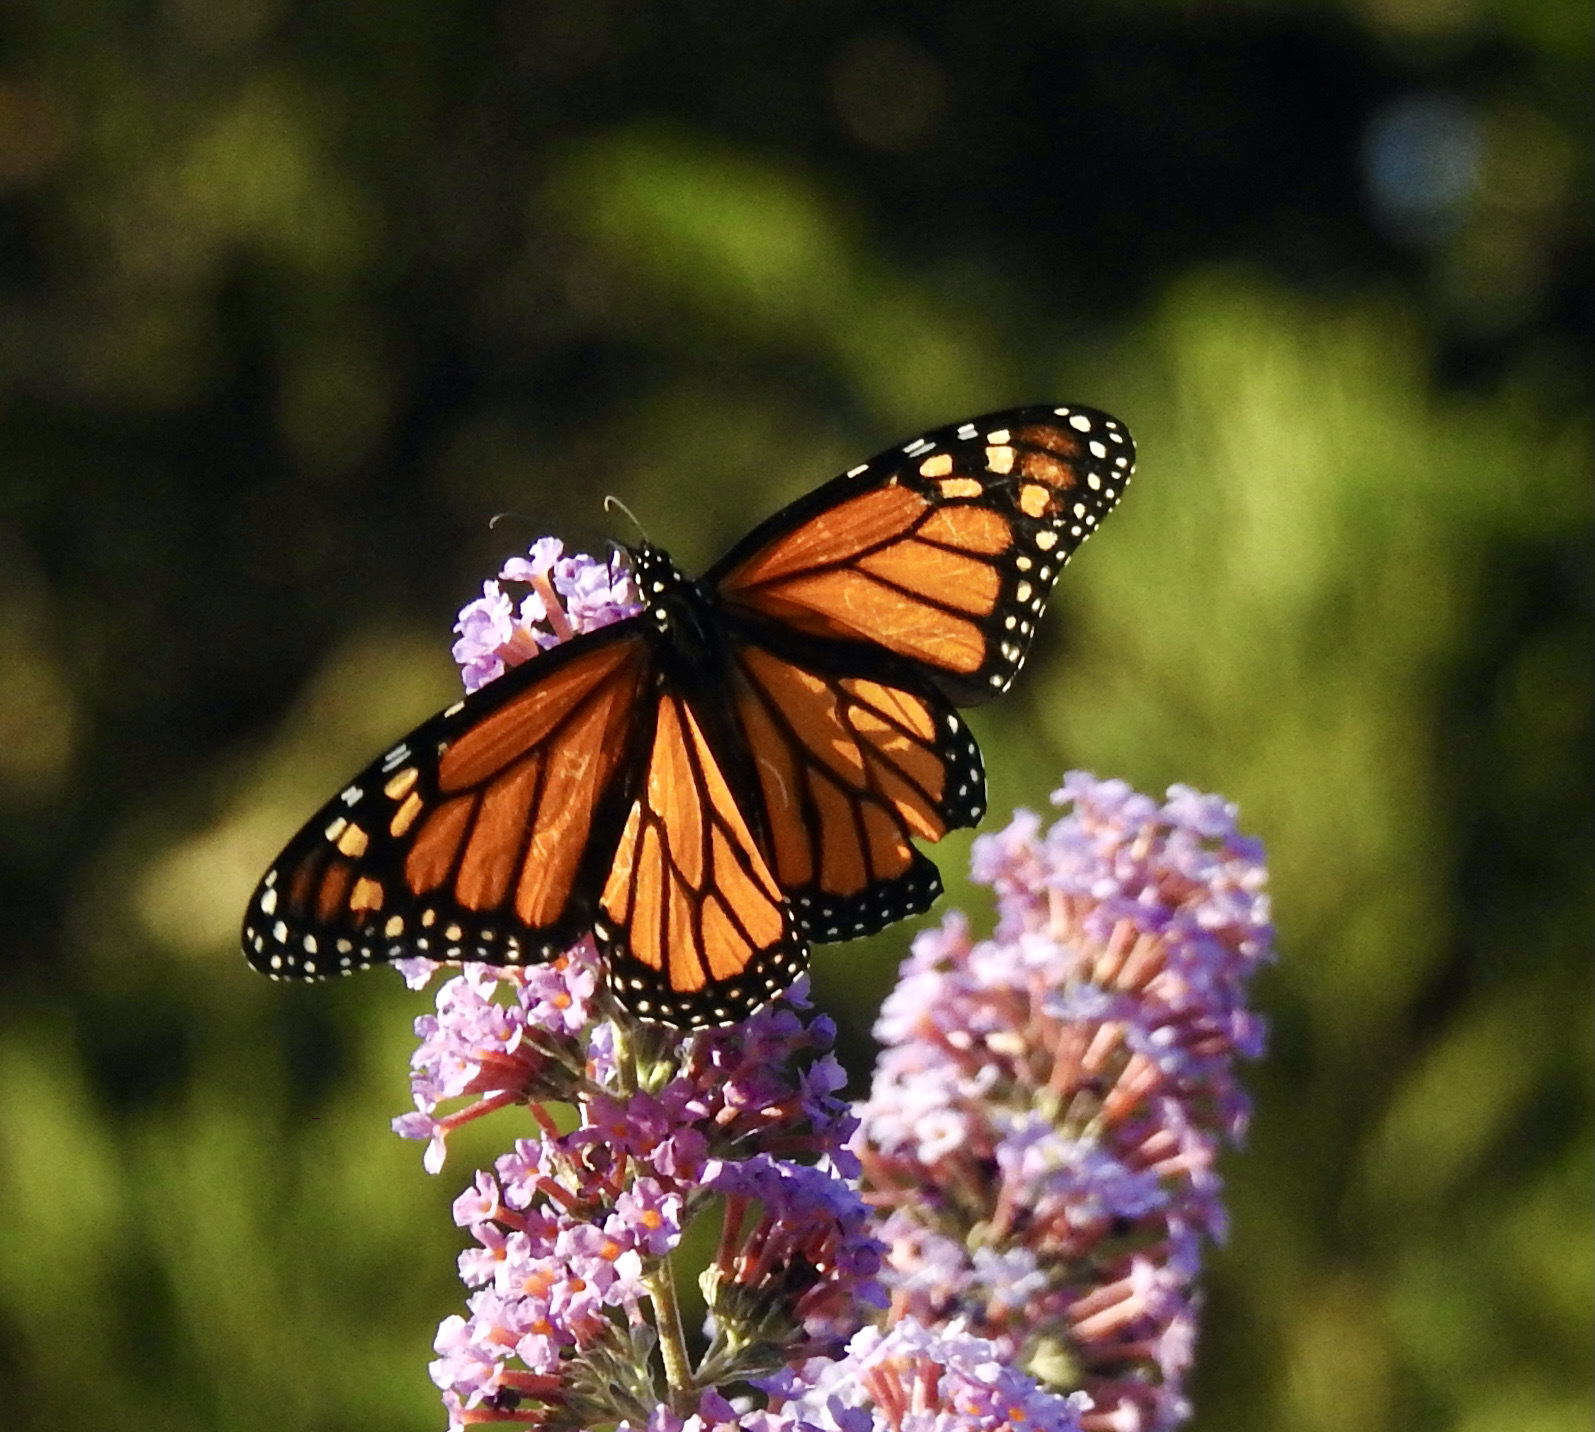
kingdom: Animalia
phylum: Arthropoda
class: Insecta
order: Lepidoptera
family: Nymphalidae
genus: Danaus
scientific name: Danaus plexippus
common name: Monarch
